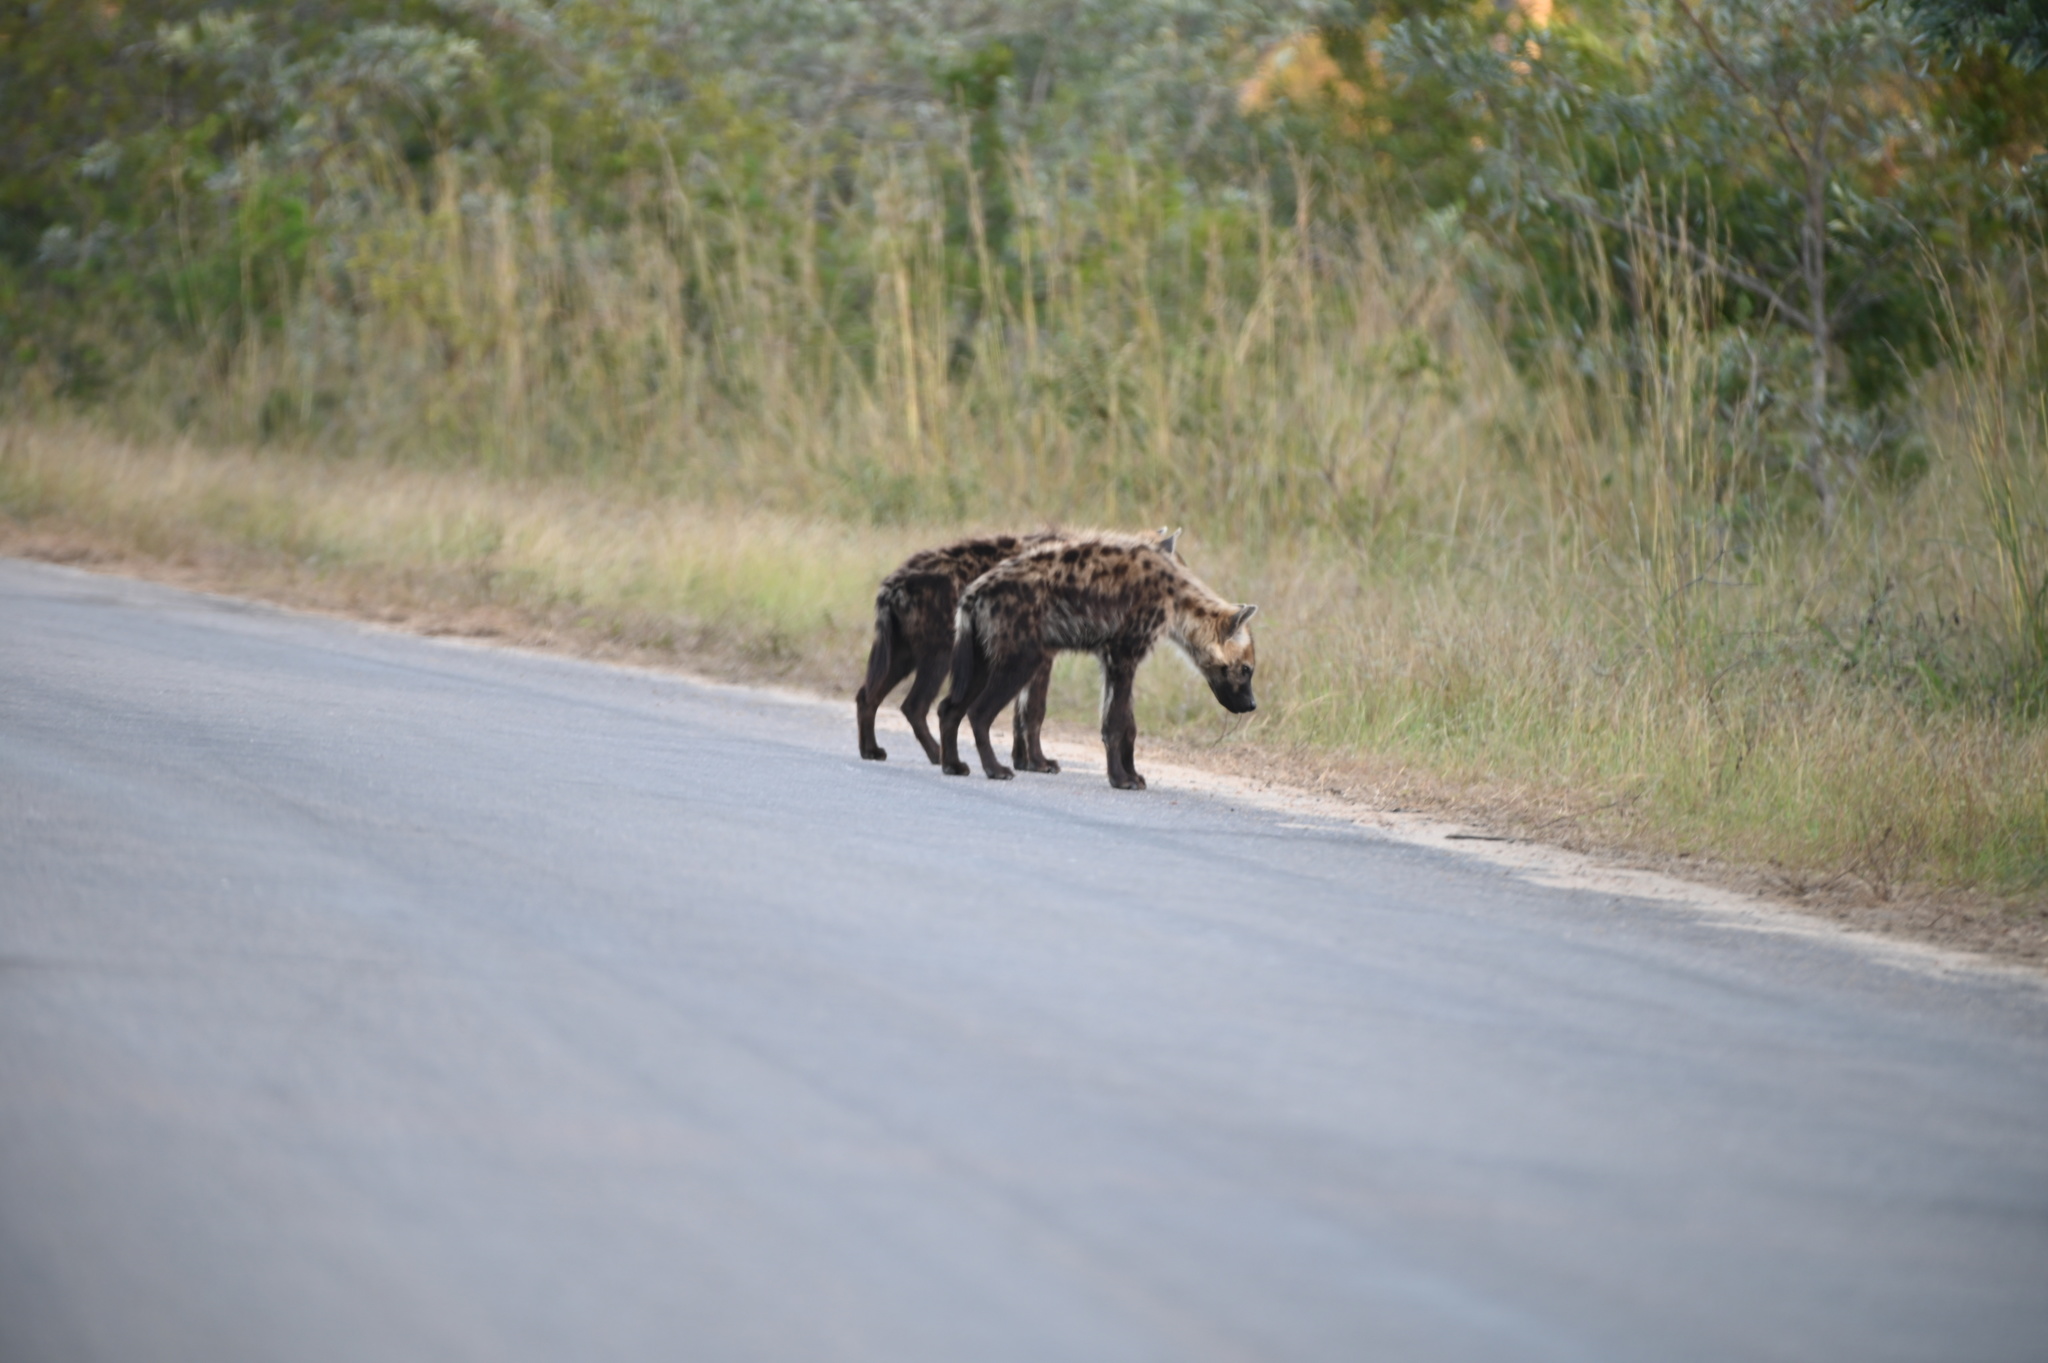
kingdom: Animalia
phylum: Chordata
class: Mammalia
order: Carnivora
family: Hyaenidae
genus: Crocuta
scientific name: Crocuta crocuta
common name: Spotted hyaena
